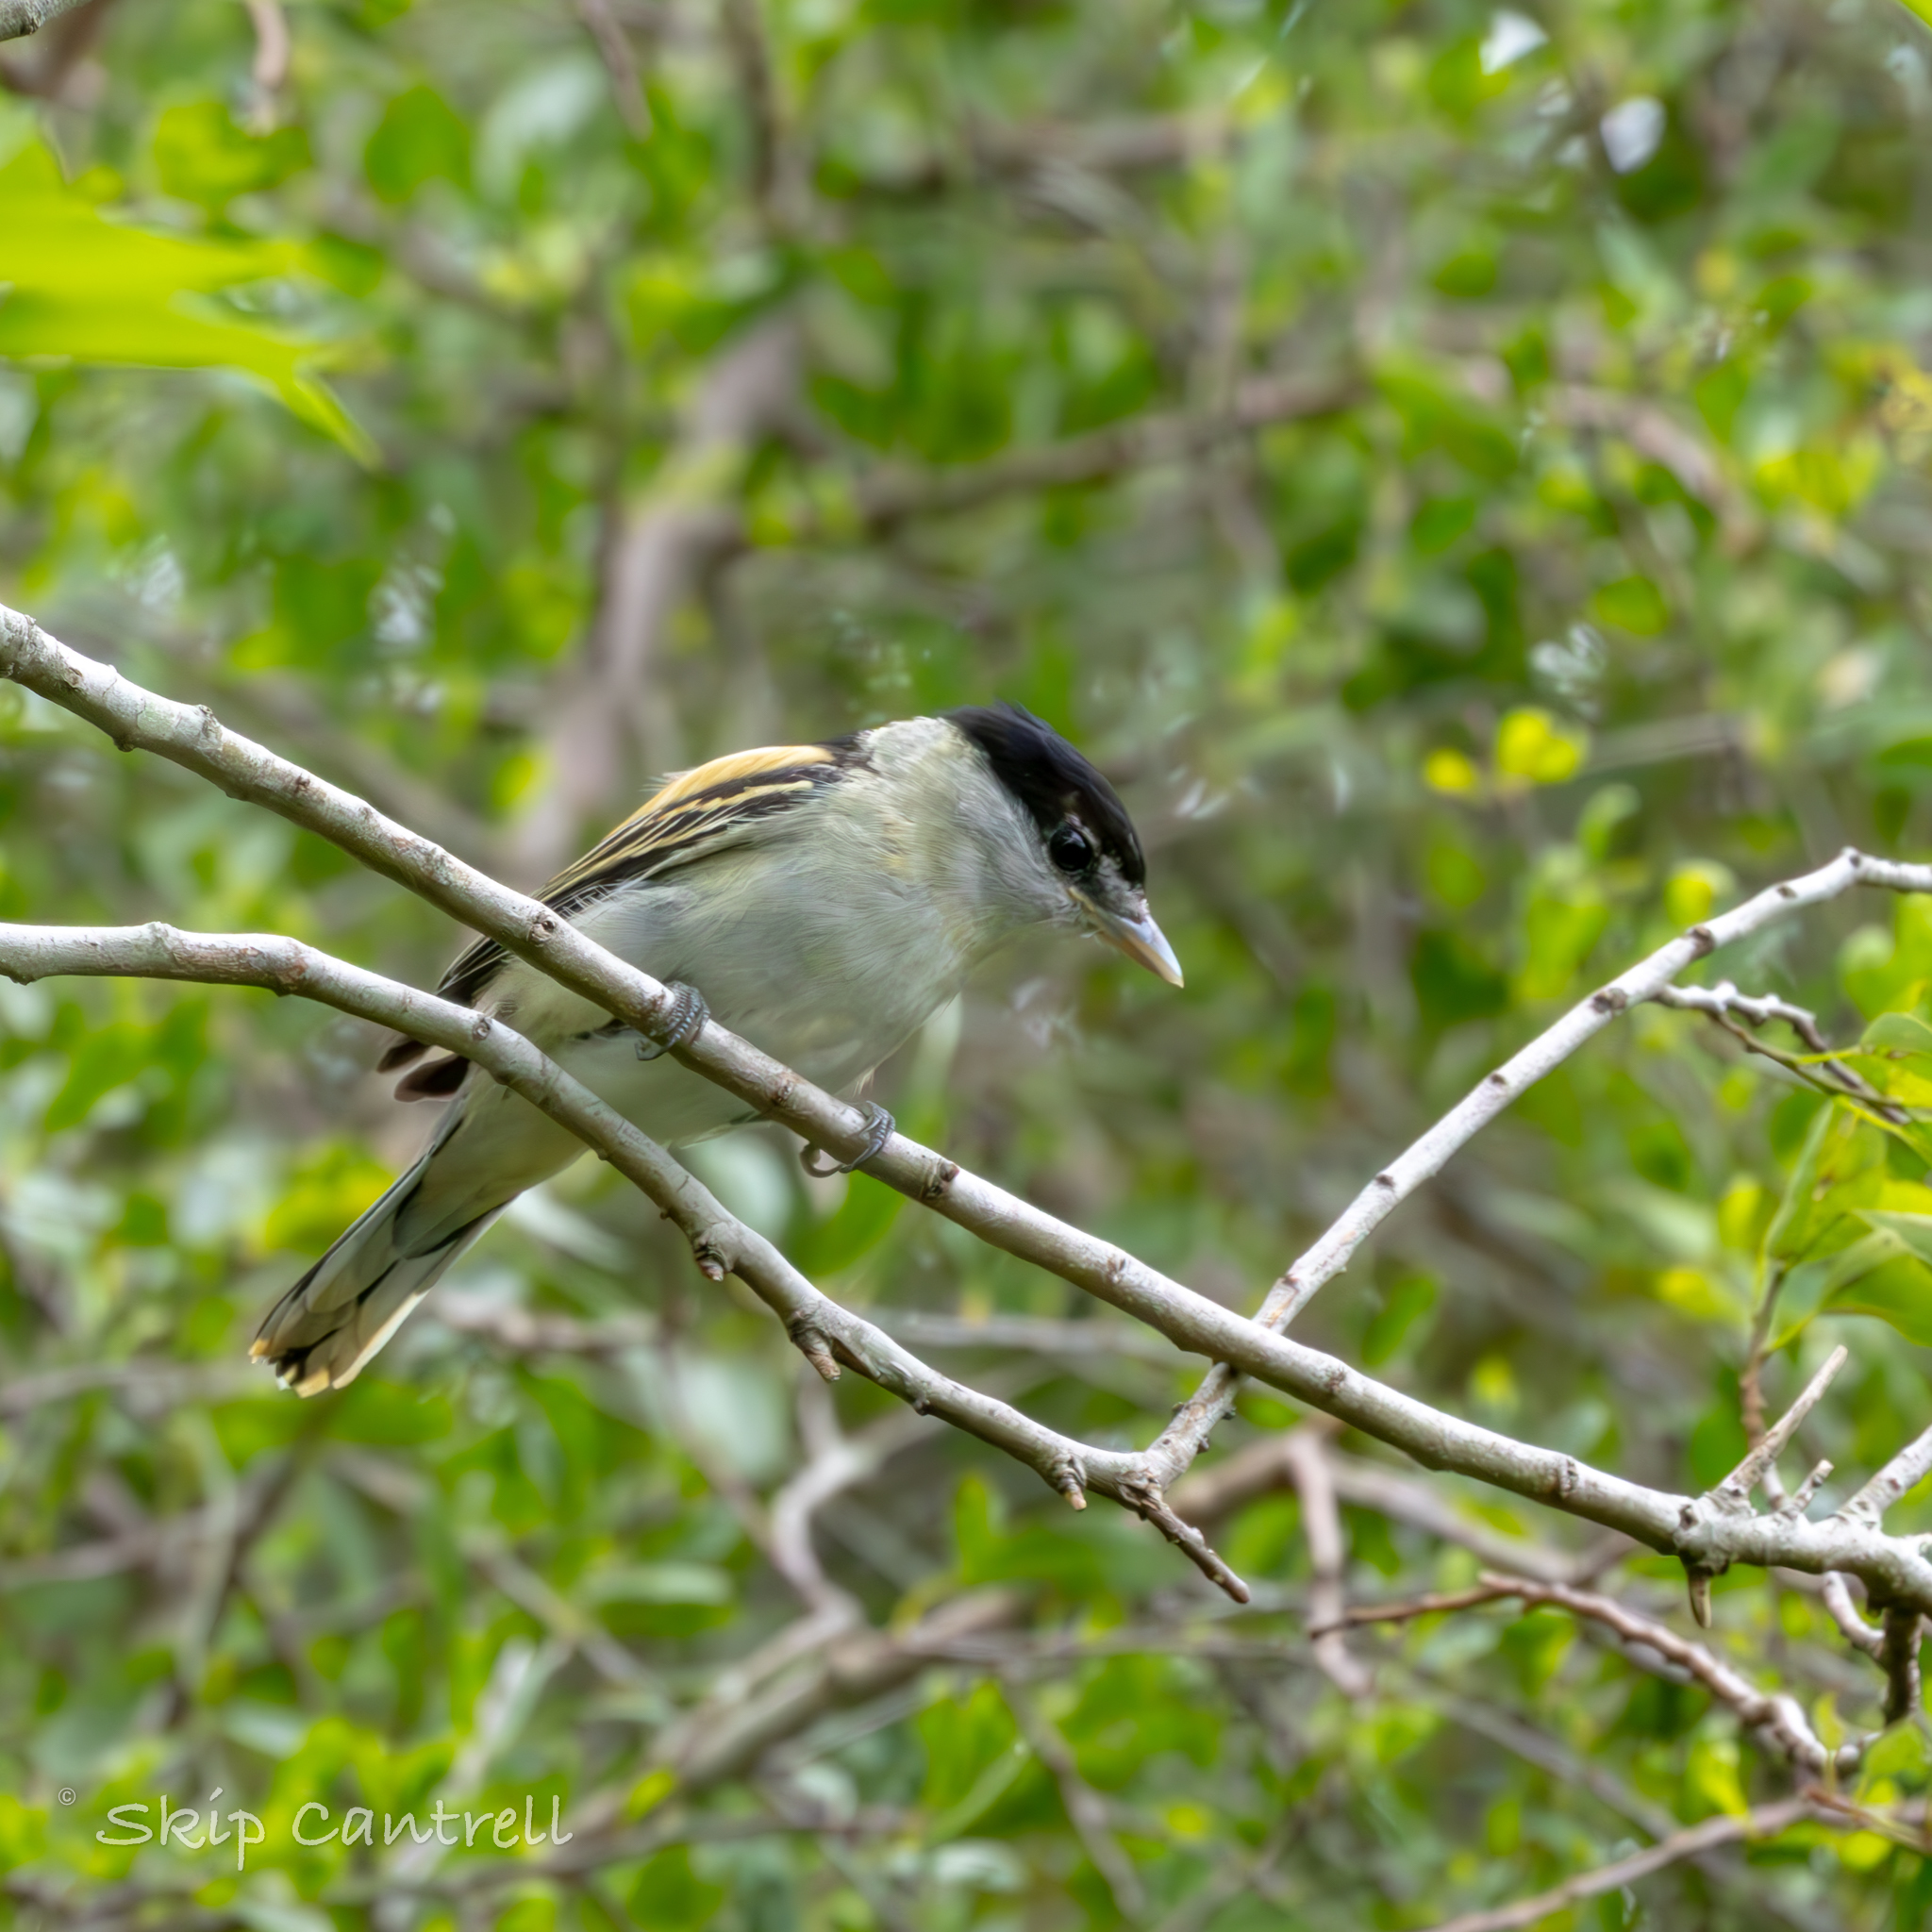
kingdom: Animalia
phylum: Chordata
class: Aves
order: Passeriformes
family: Cotingidae
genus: Pachyramphus
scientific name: Pachyramphus major
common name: Gray-collared becard
